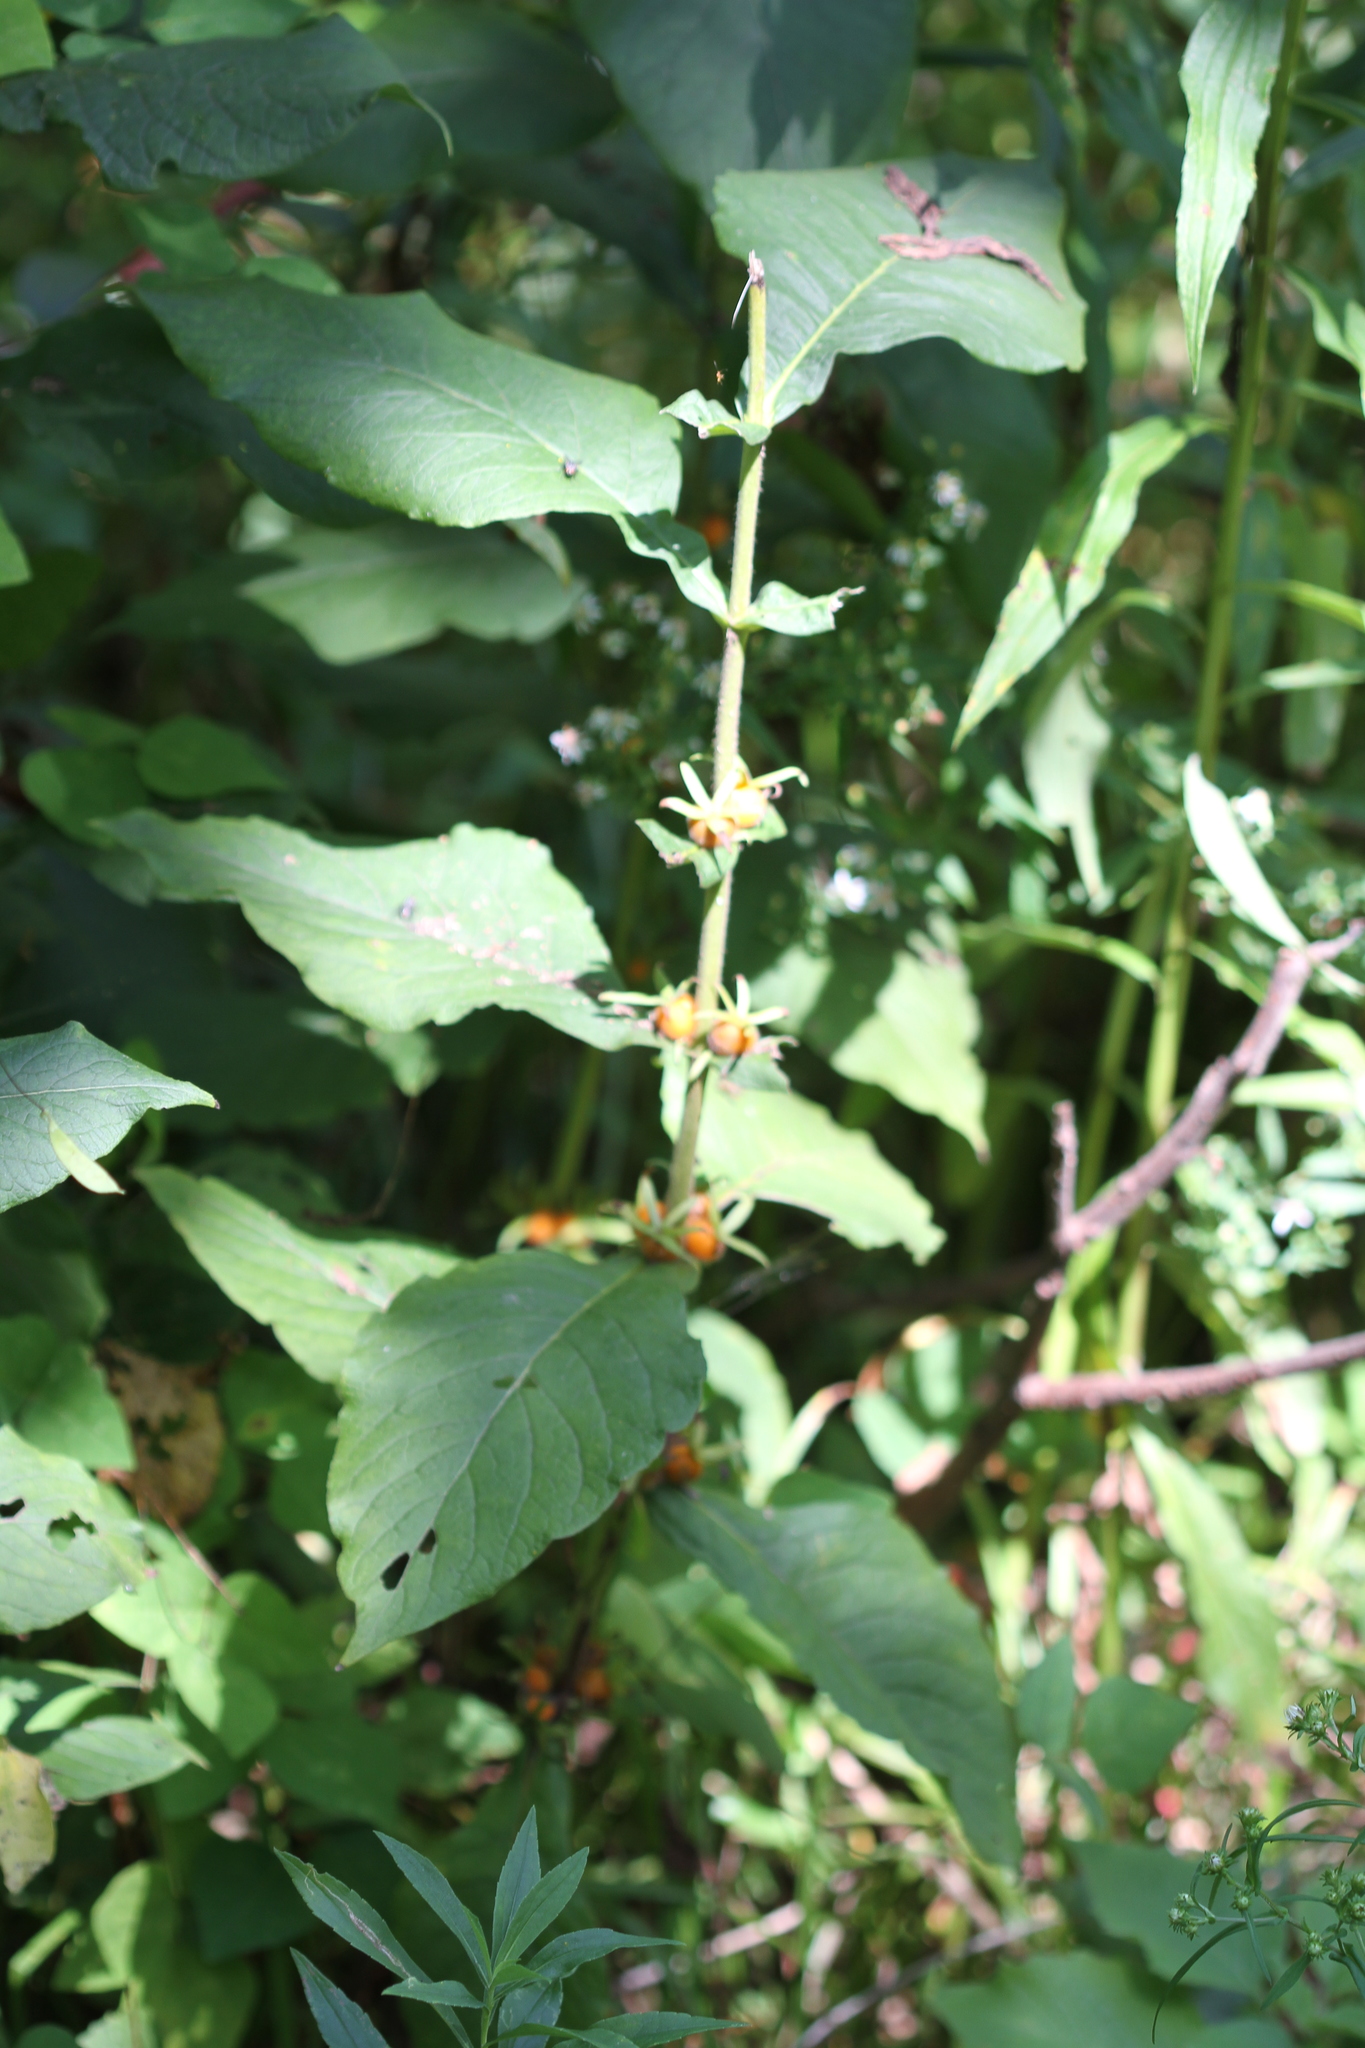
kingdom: Plantae
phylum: Tracheophyta
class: Magnoliopsida
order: Dipsacales
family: Caprifoliaceae
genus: Triosteum
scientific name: Triosteum aurantiacum
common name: Coffee tinker's-weed
